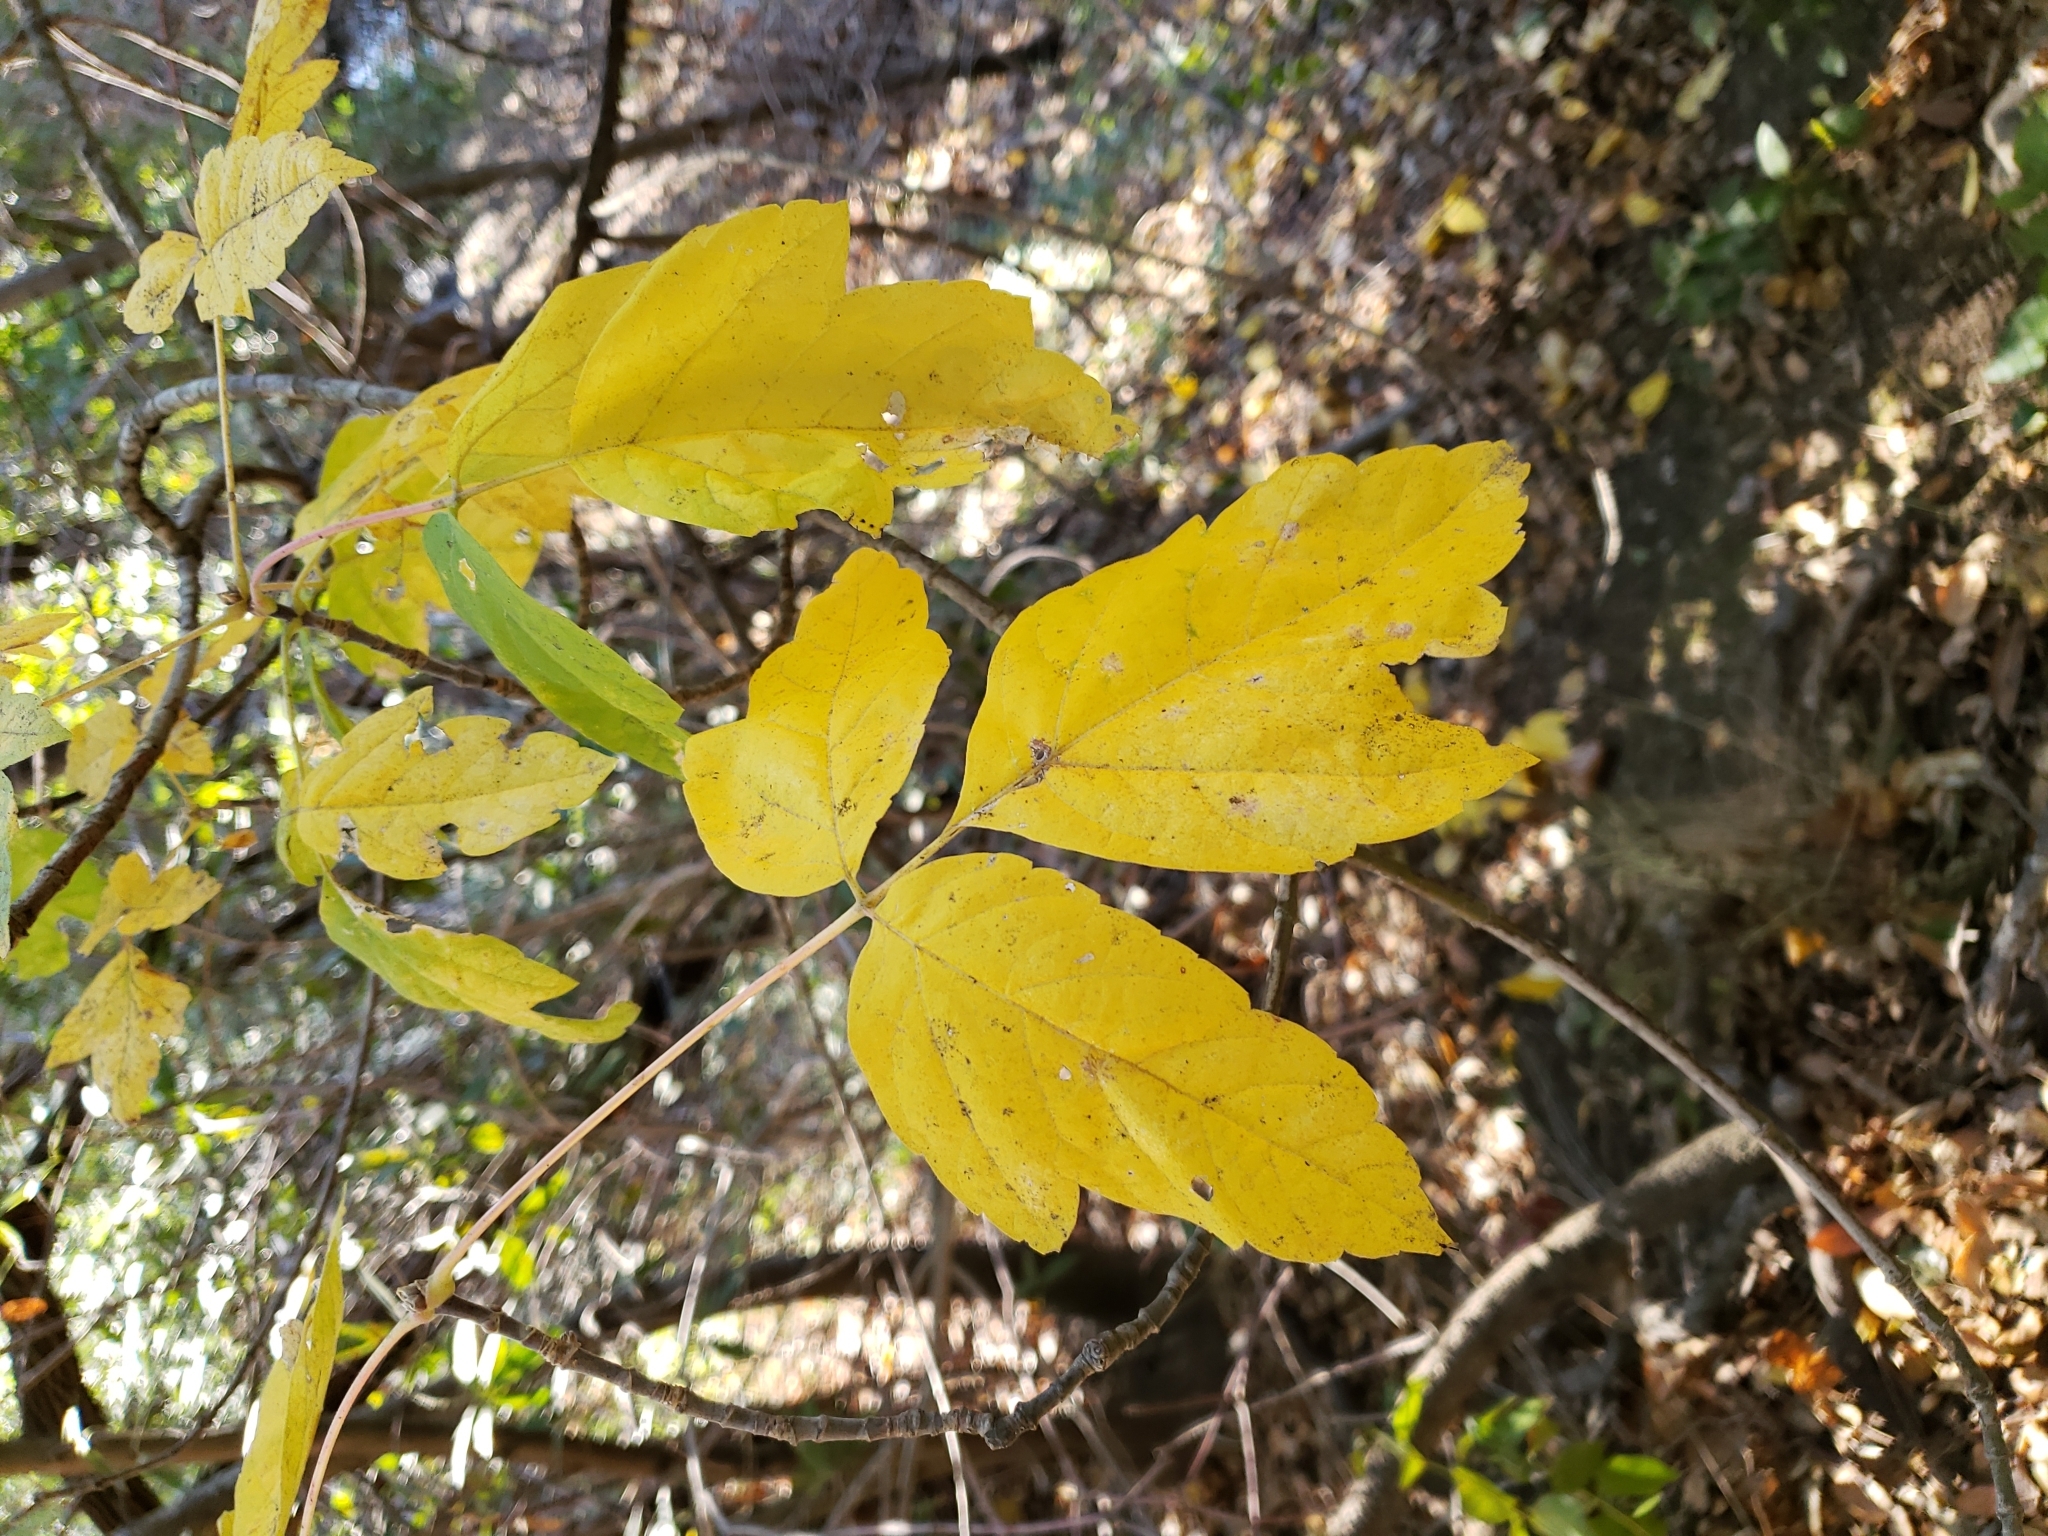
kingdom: Plantae
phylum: Tracheophyta
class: Magnoliopsida
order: Sapindales
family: Sapindaceae
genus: Acer
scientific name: Acer negundo
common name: Ashleaf maple
